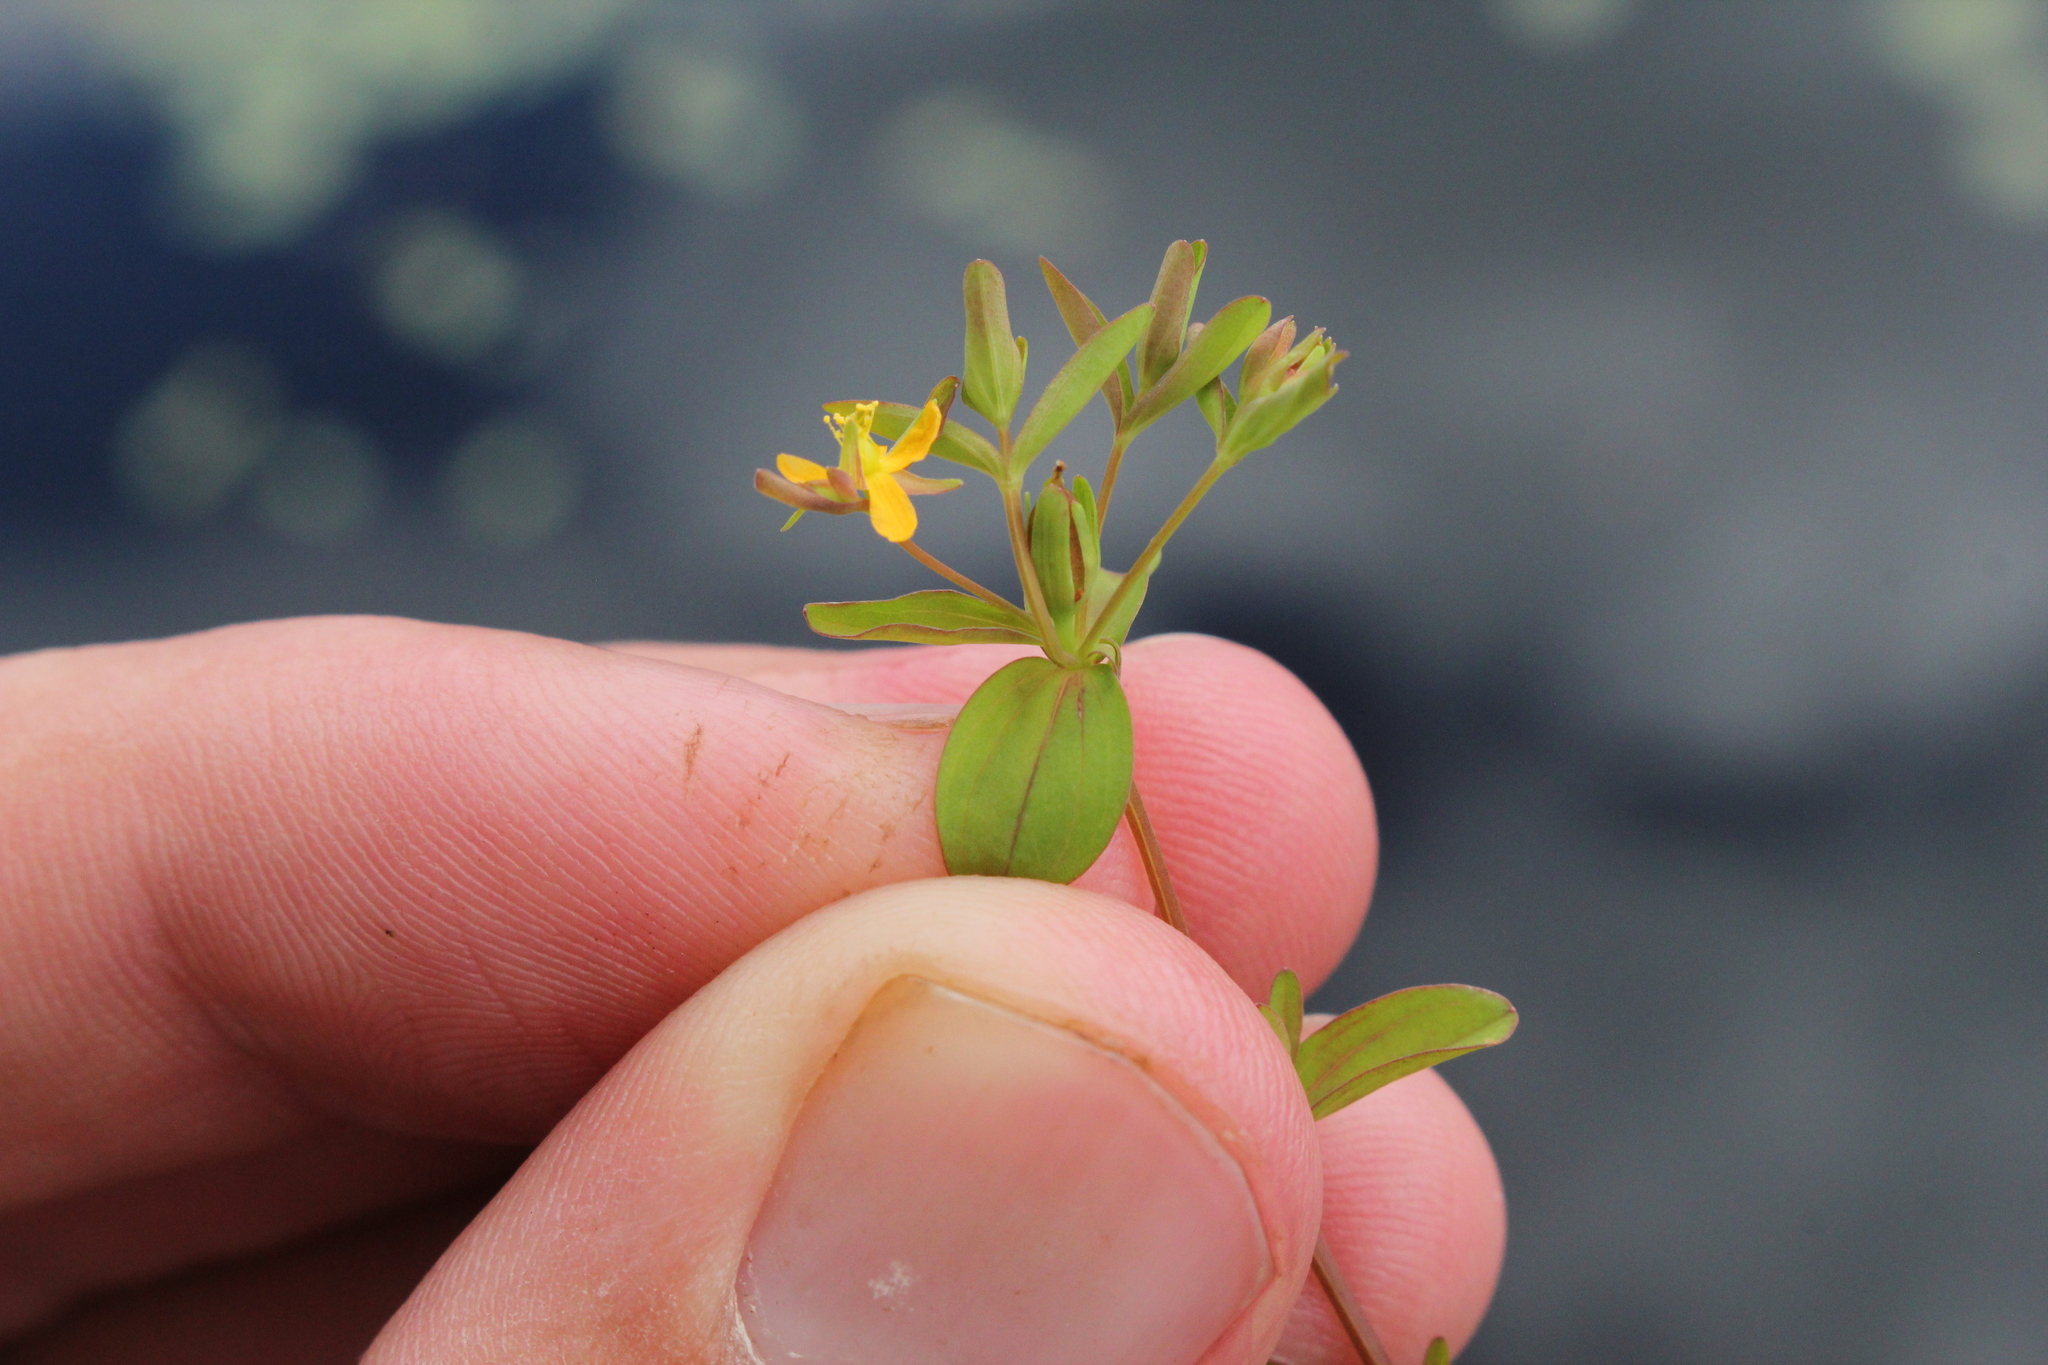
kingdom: Plantae
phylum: Tracheophyta
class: Magnoliopsida
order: Malpighiales
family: Hypericaceae
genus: Hypericum
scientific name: Hypericum boreale
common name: Northern bog st. john's-wort
